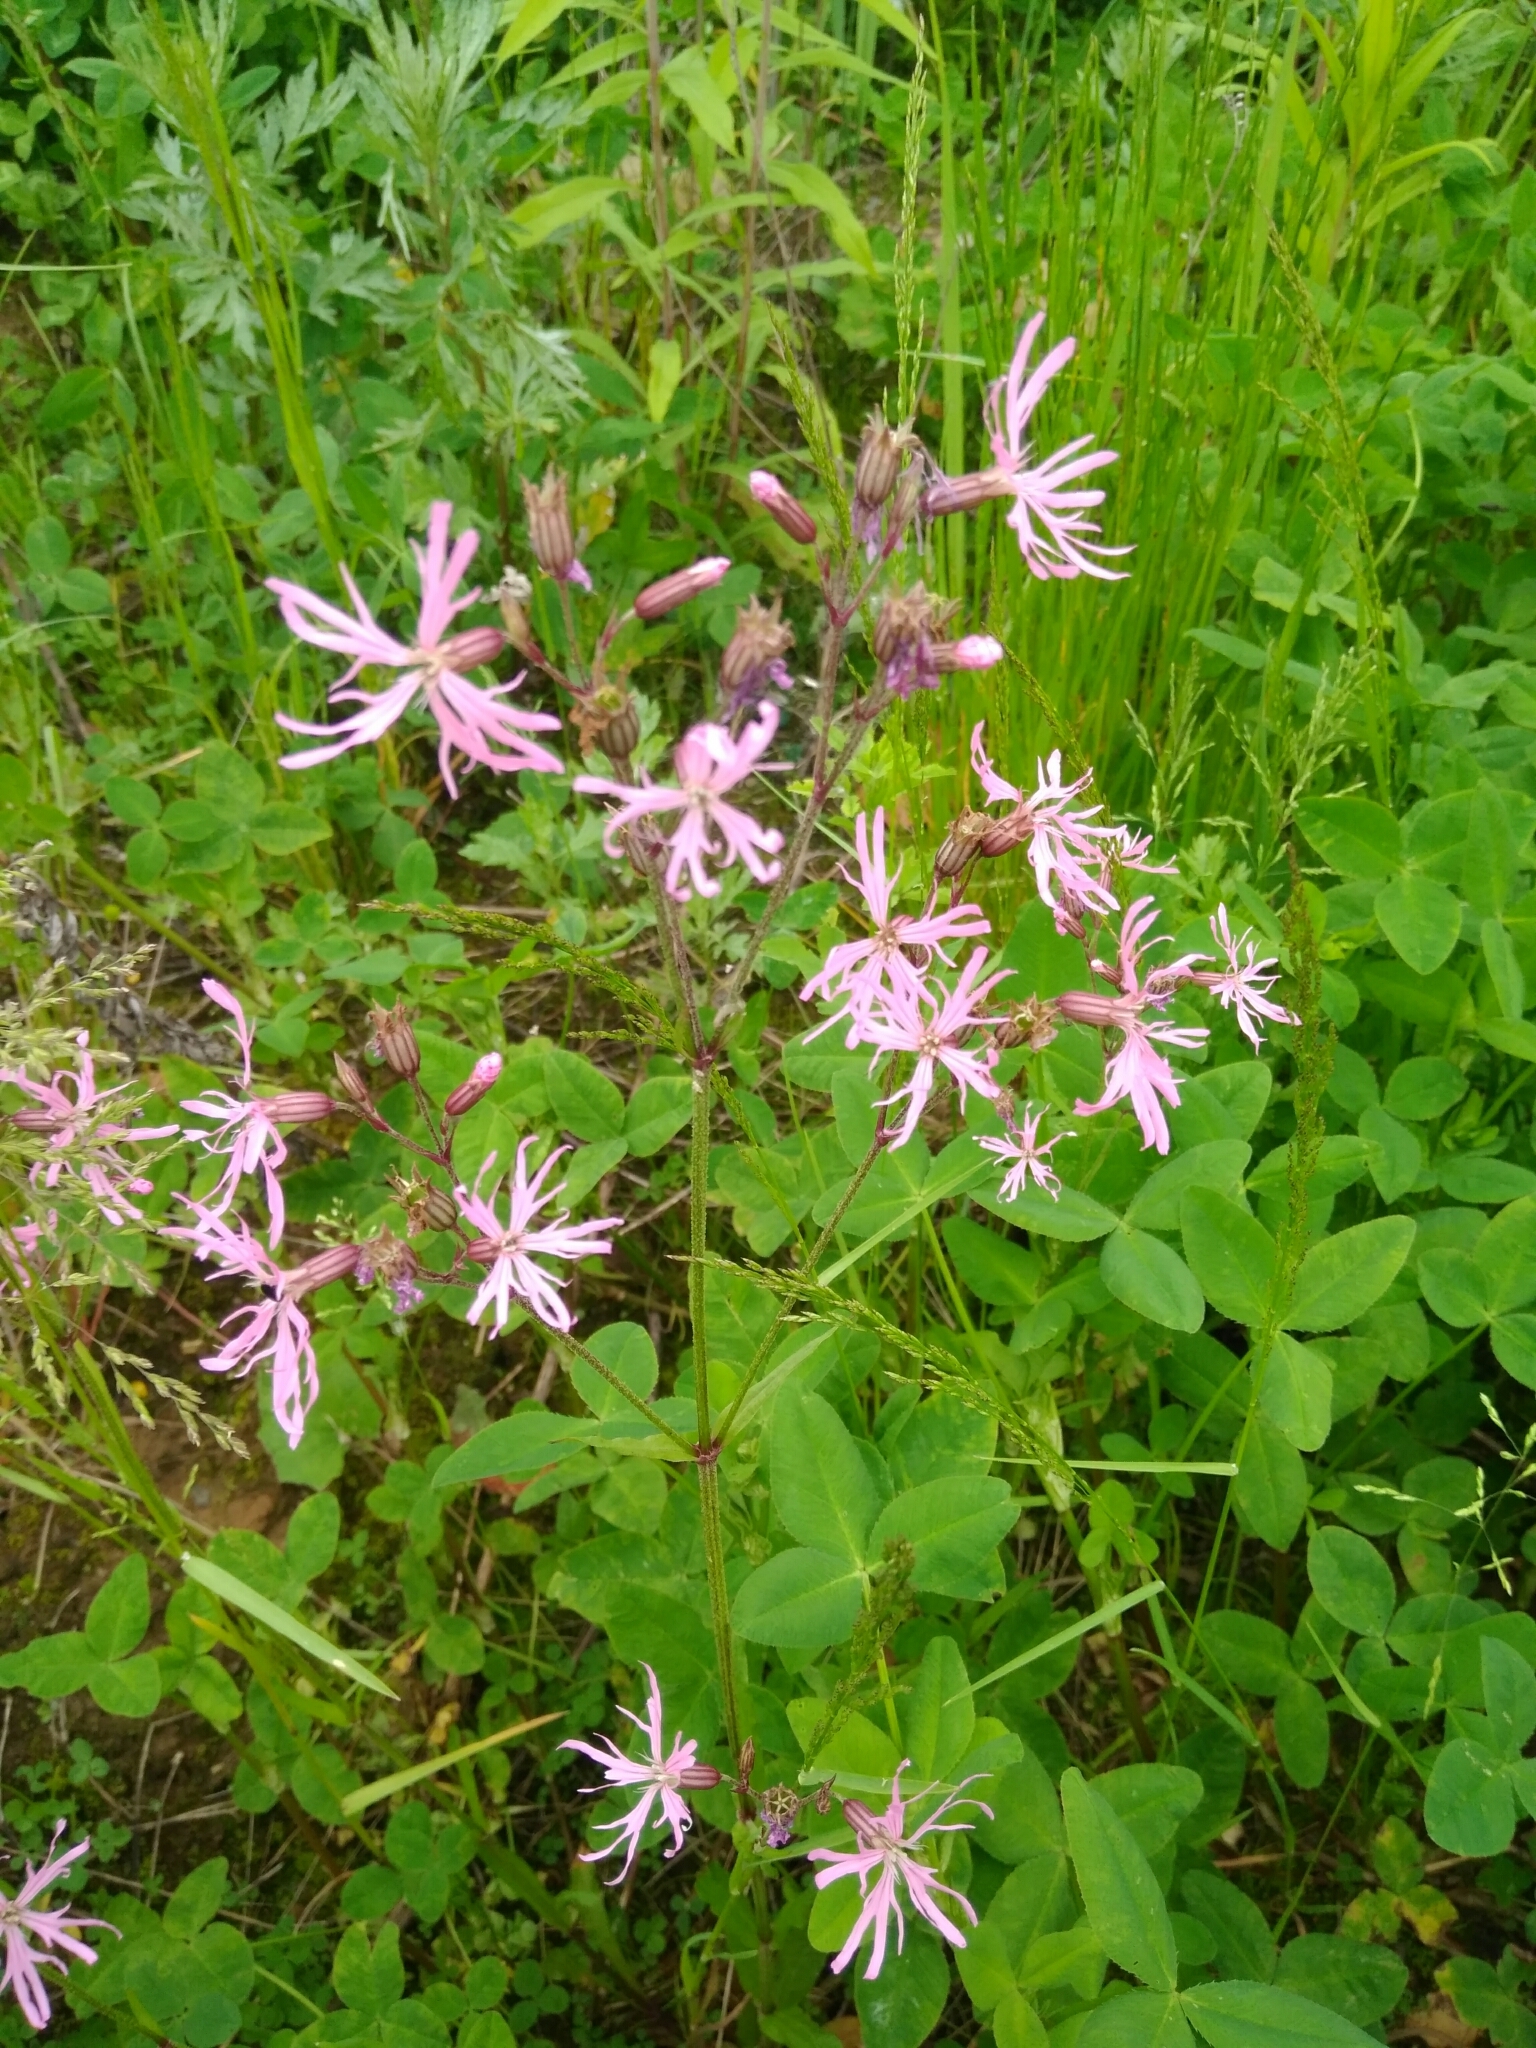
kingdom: Plantae
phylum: Tracheophyta
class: Magnoliopsida
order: Caryophyllales
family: Caryophyllaceae
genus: Silene
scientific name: Silene flos-cuculi
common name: Ragged-robin
